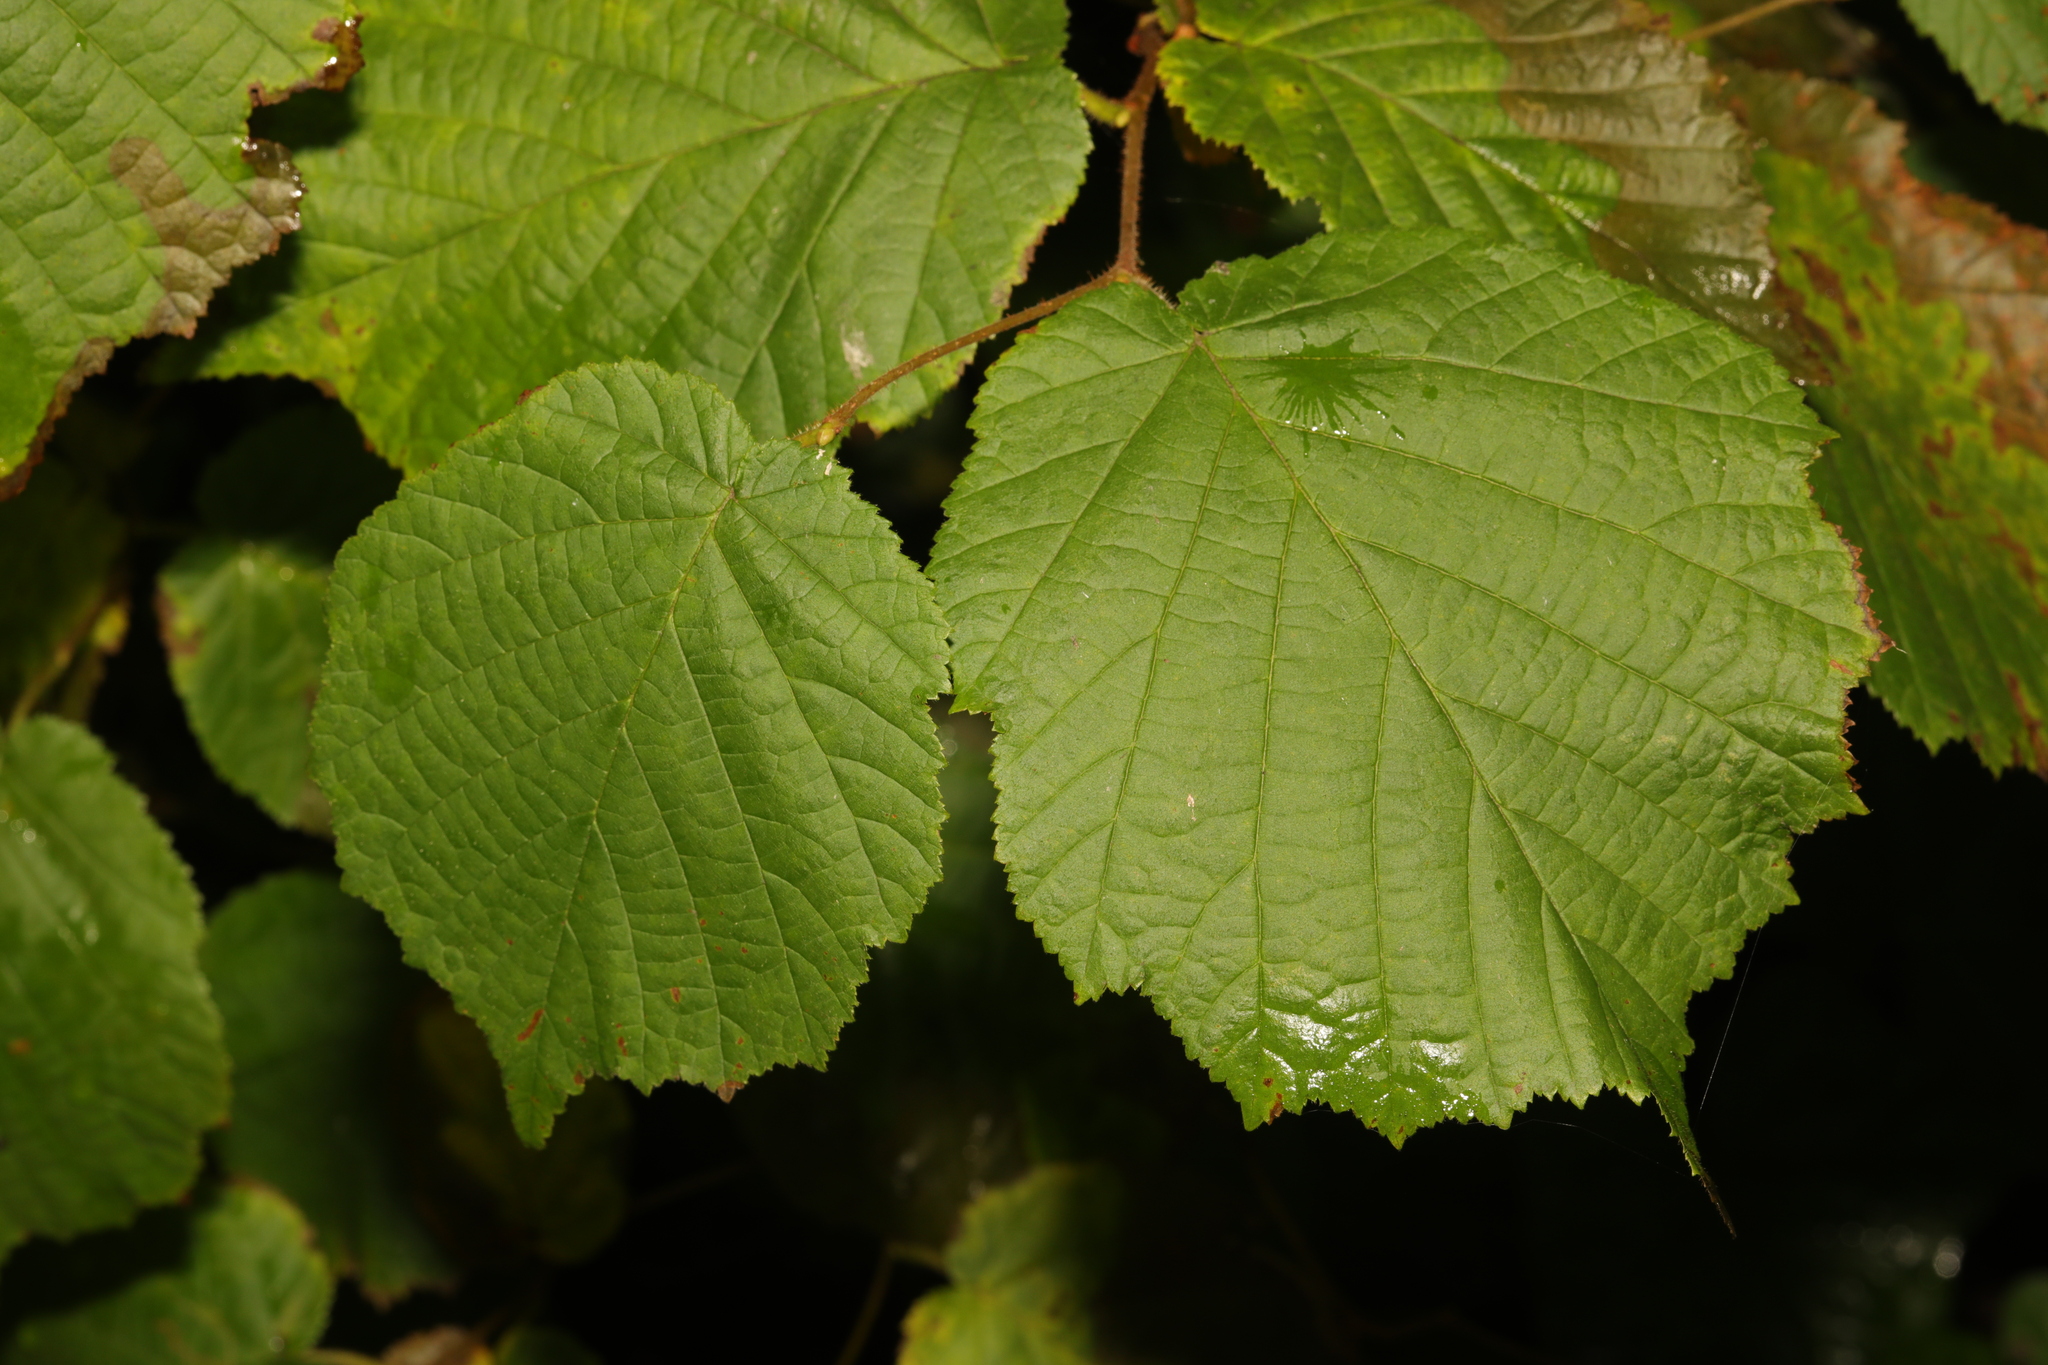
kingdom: Plantae
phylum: Tracheophyta
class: Magnoliopsida
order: Fagales
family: Betulaceae
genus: Corylus
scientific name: Corylus avellana
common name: European hazel
